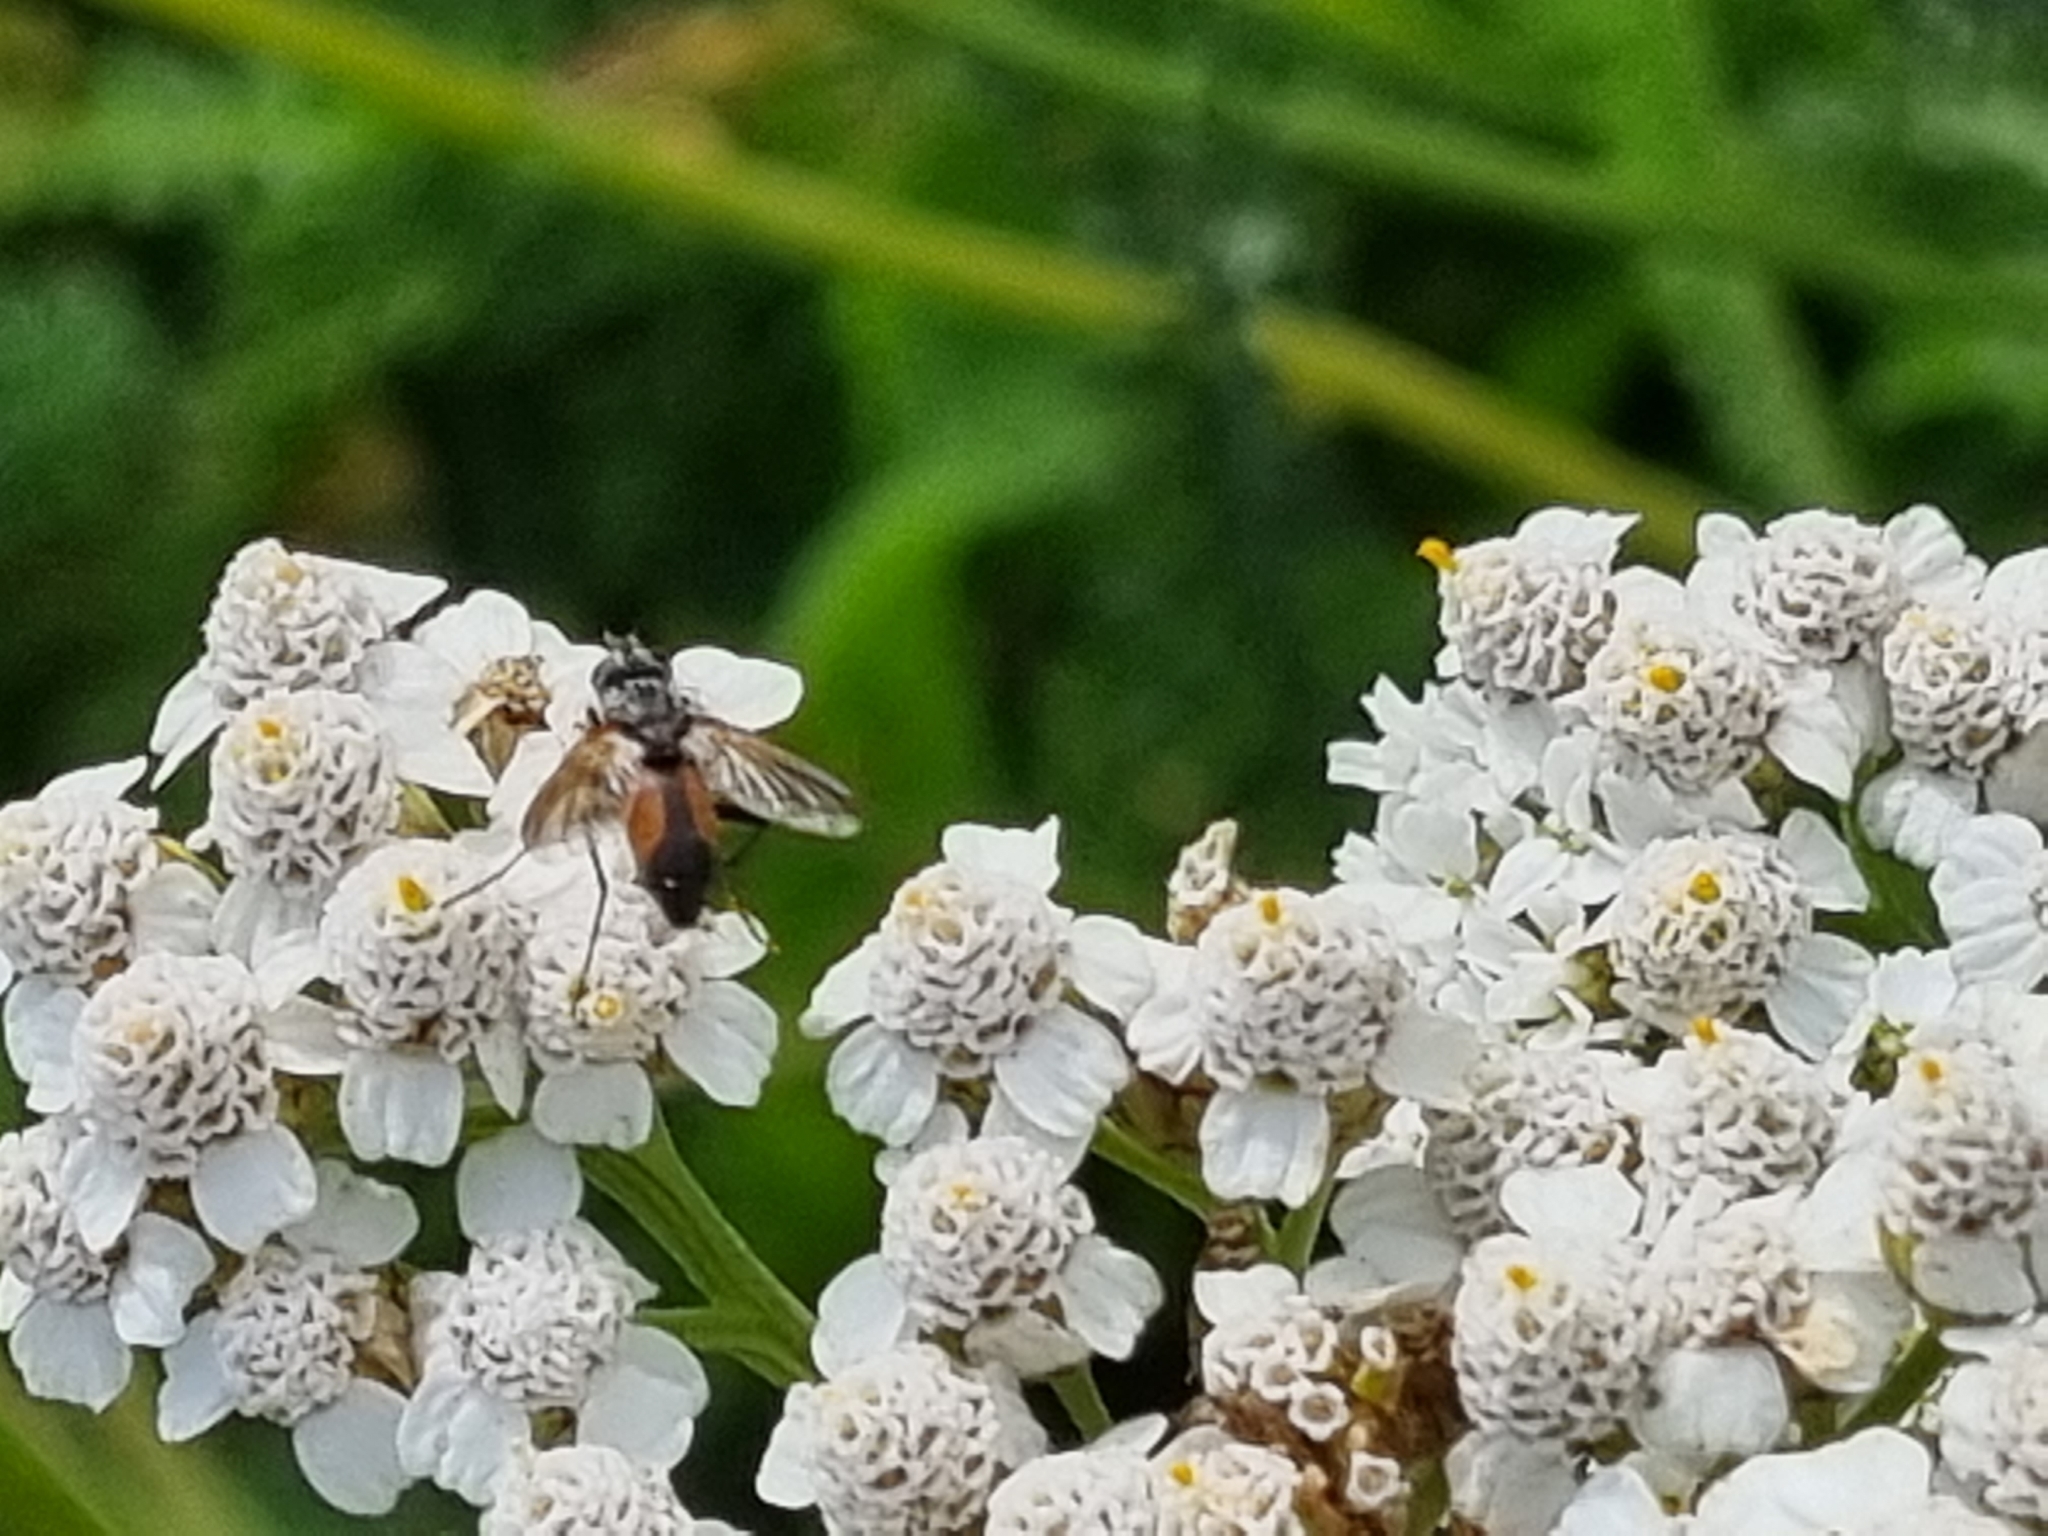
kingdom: Animalia
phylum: Arthropoda
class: Insecta
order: Diptera
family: Tachinidae
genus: Eriothrix
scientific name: Eriothrix rufomaculatus
